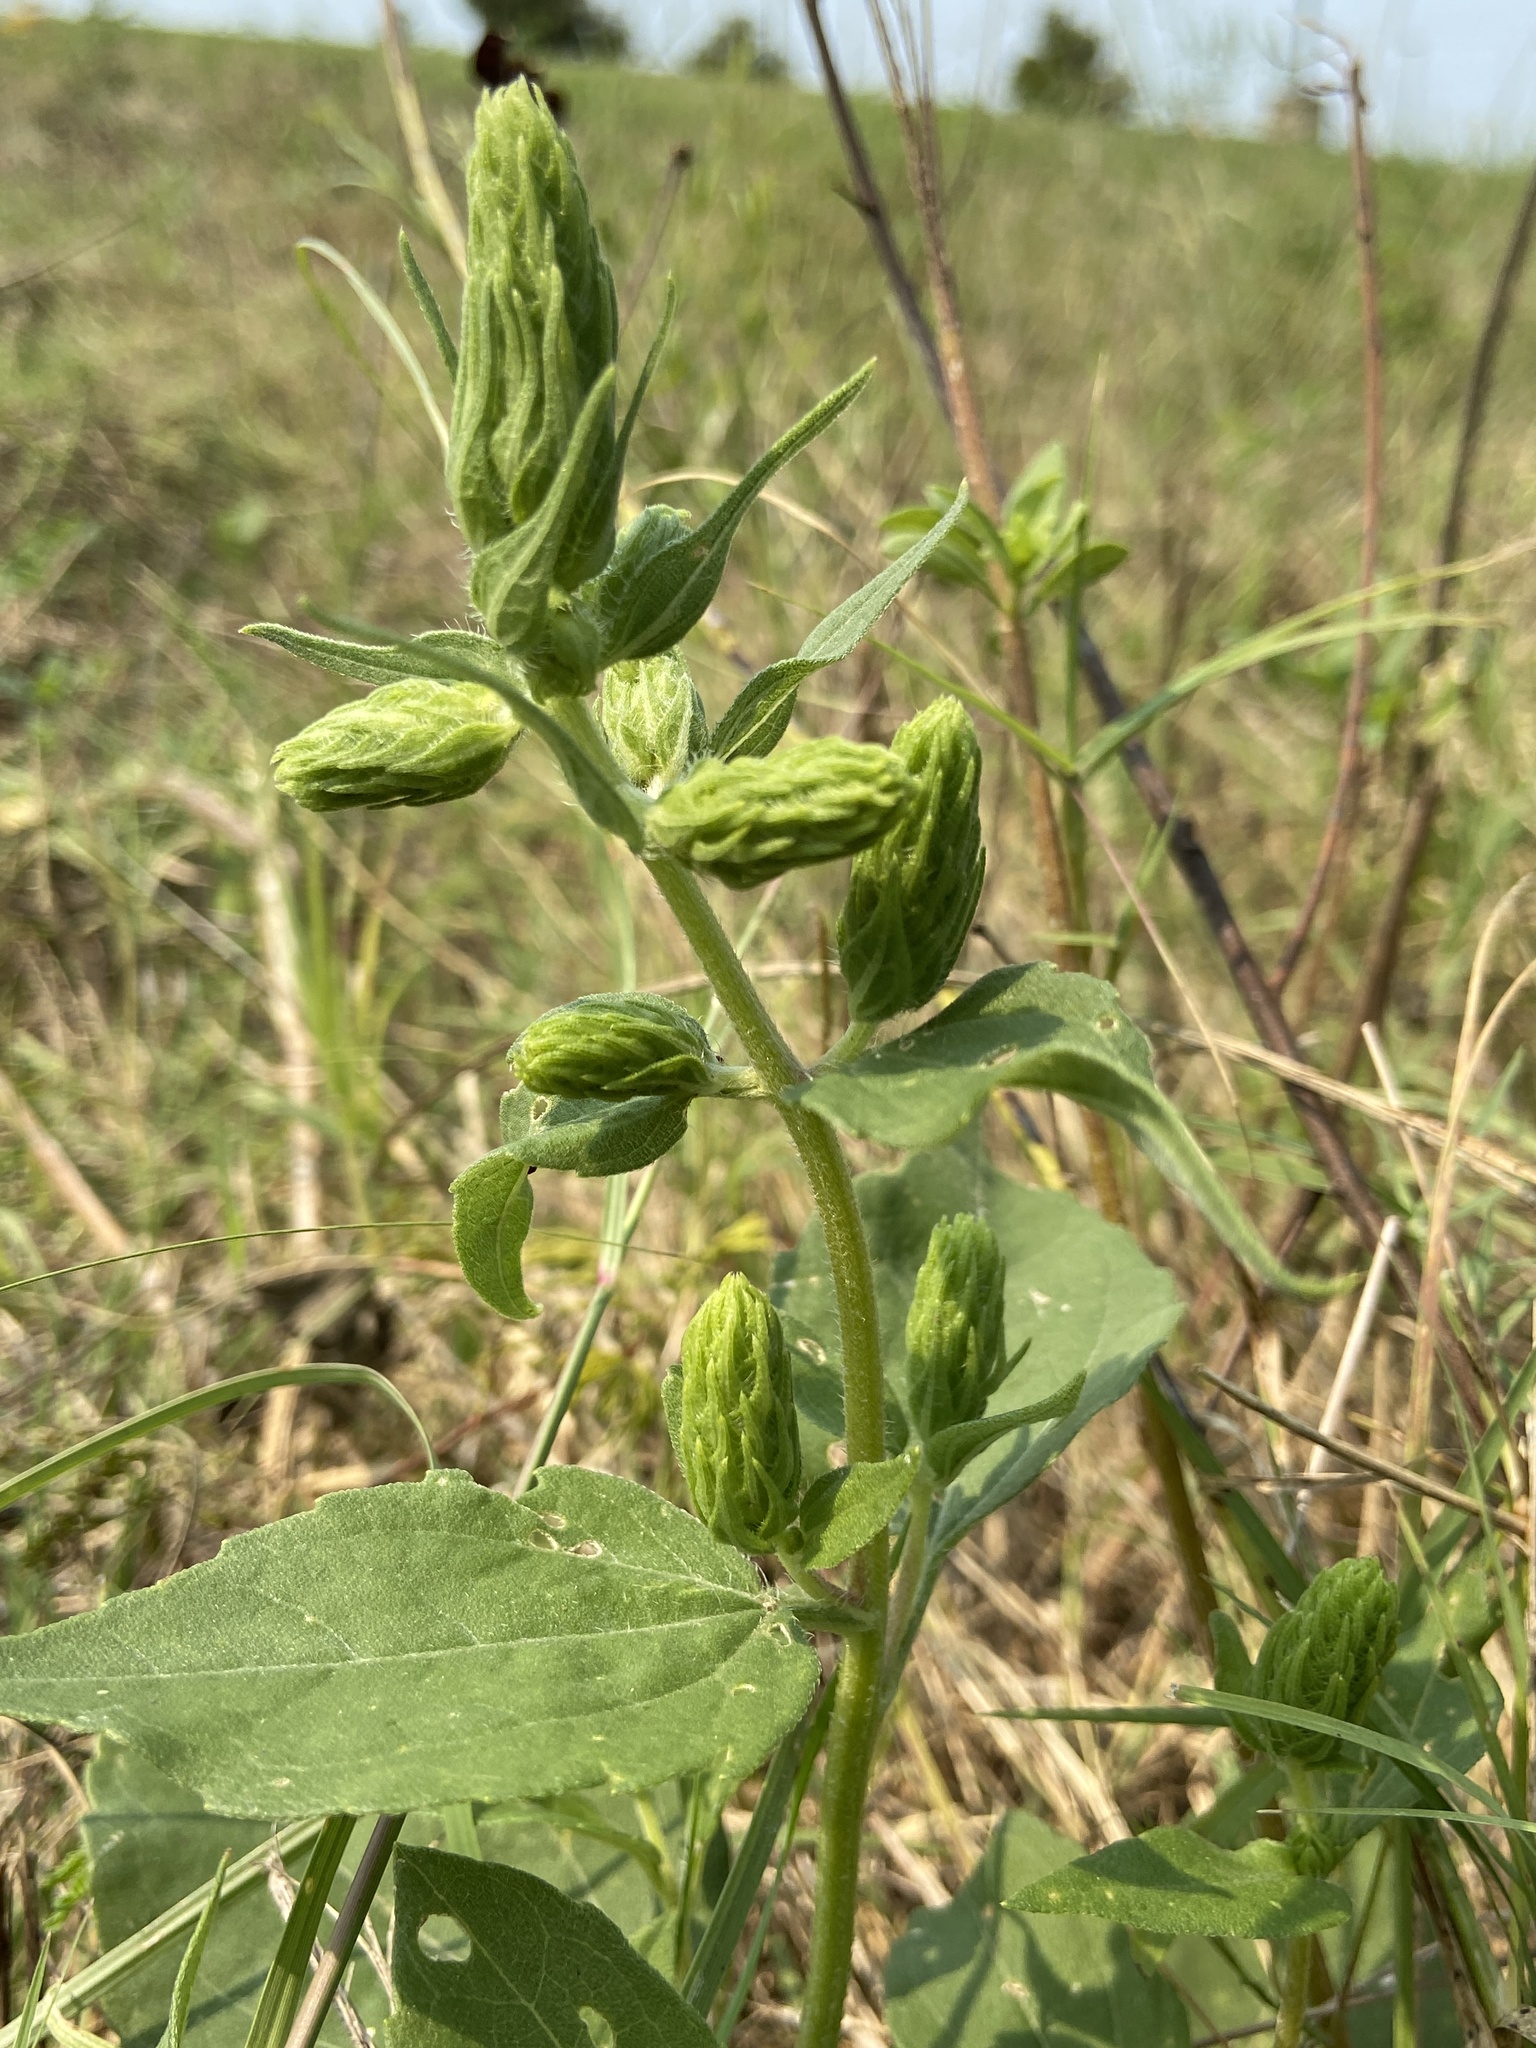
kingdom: Plantae
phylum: Tracheophyta
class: Magnoliopsida
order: Asterales
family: Asteraceae
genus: Iva
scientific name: Iva annua
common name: Marsh-elder
